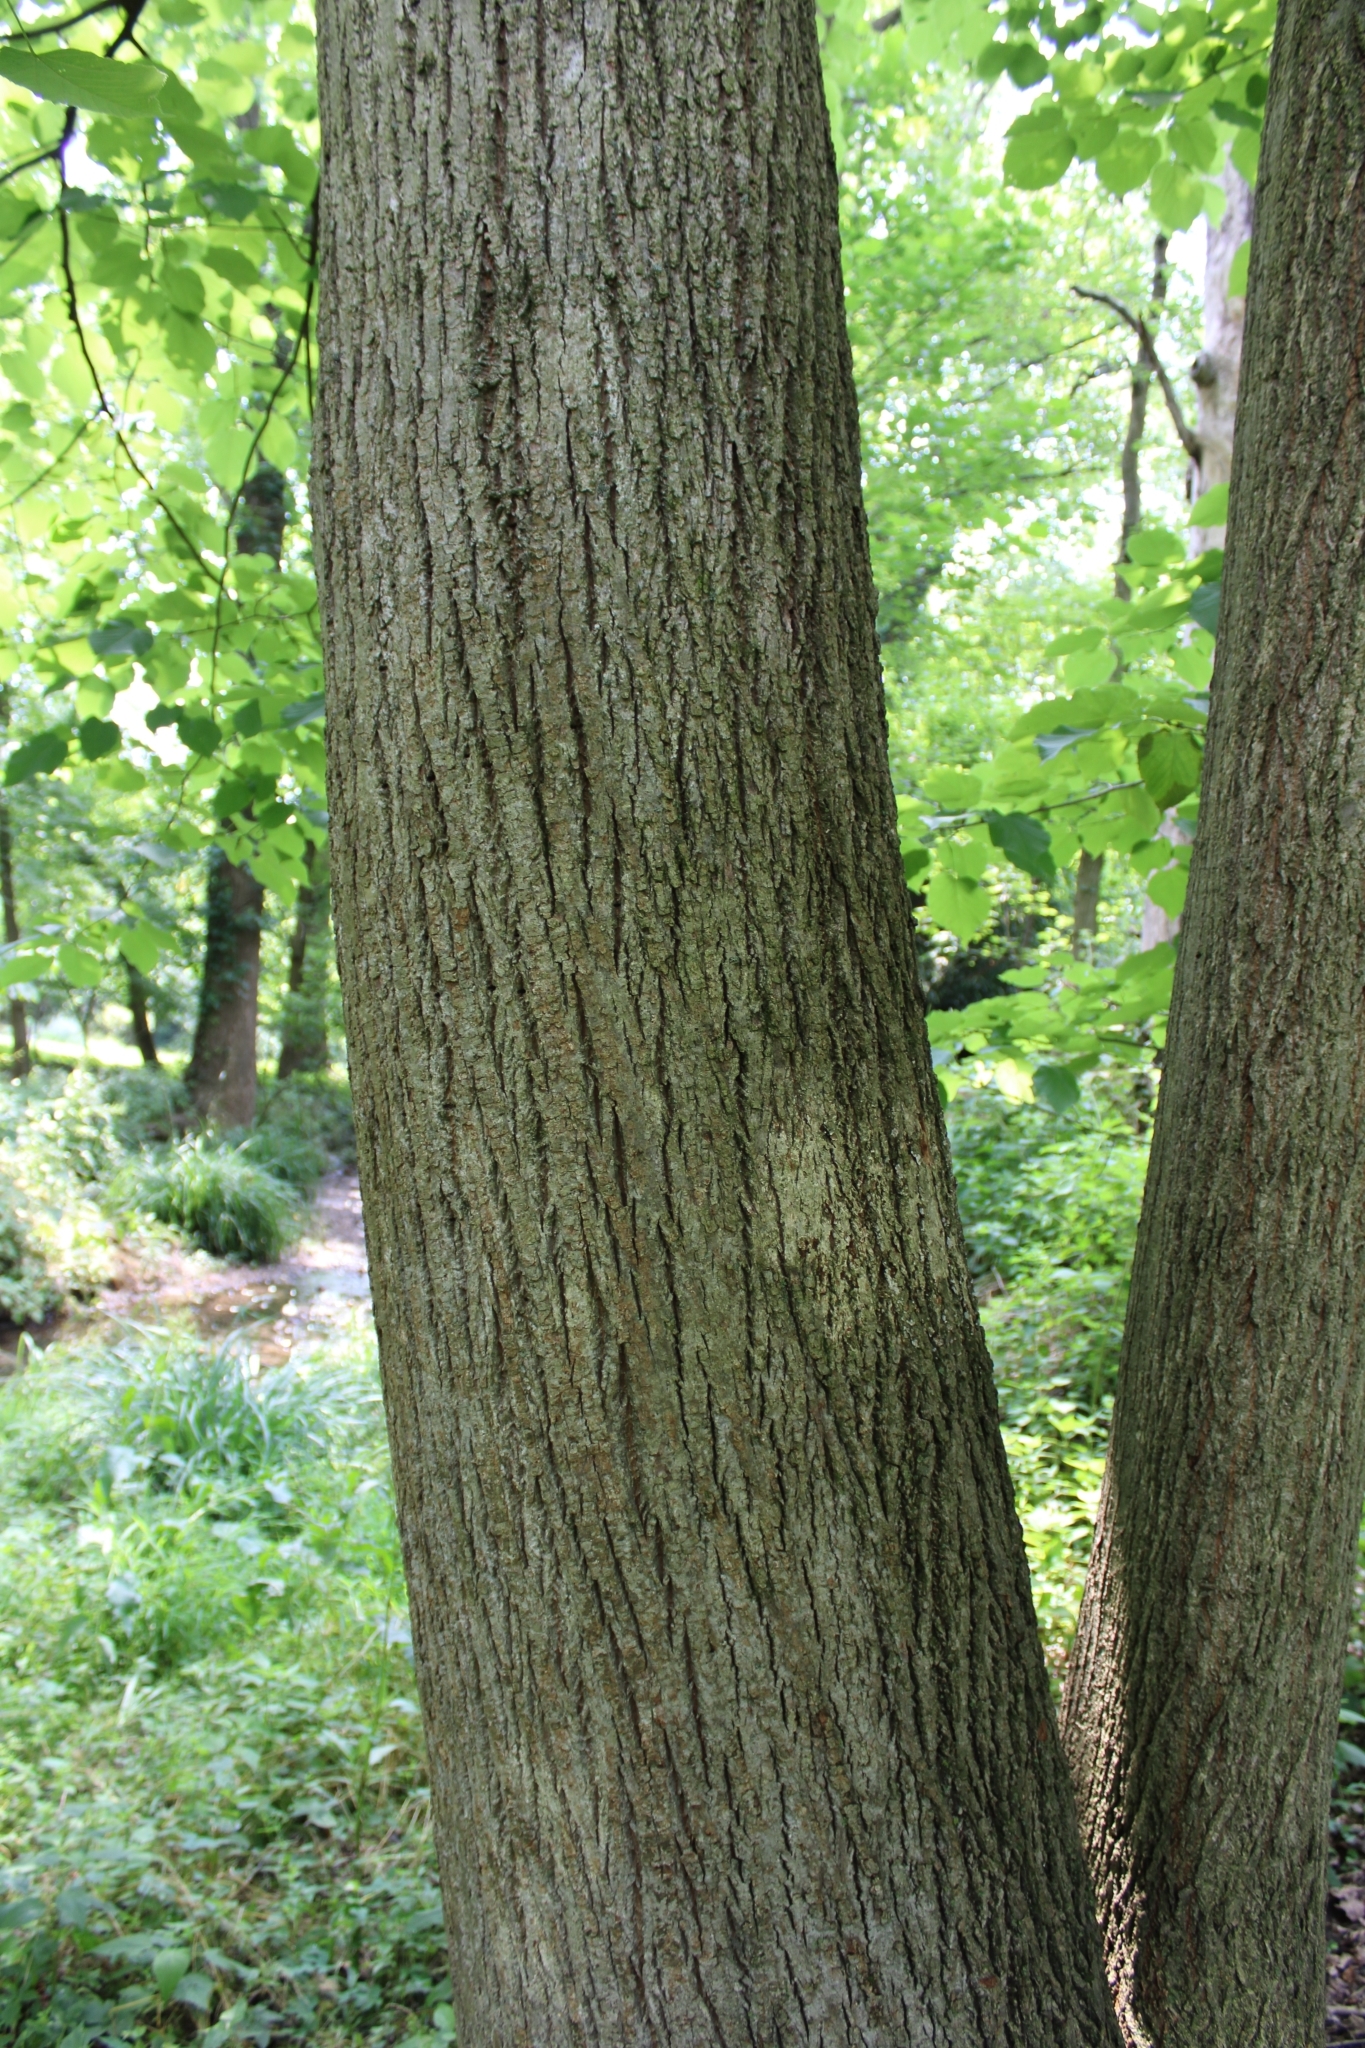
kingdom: Plantae
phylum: Tracheophyta
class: Magnoliopsida
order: Malvales
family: Malvaceae
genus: Tilia
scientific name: Tilia americana
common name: Basswood
